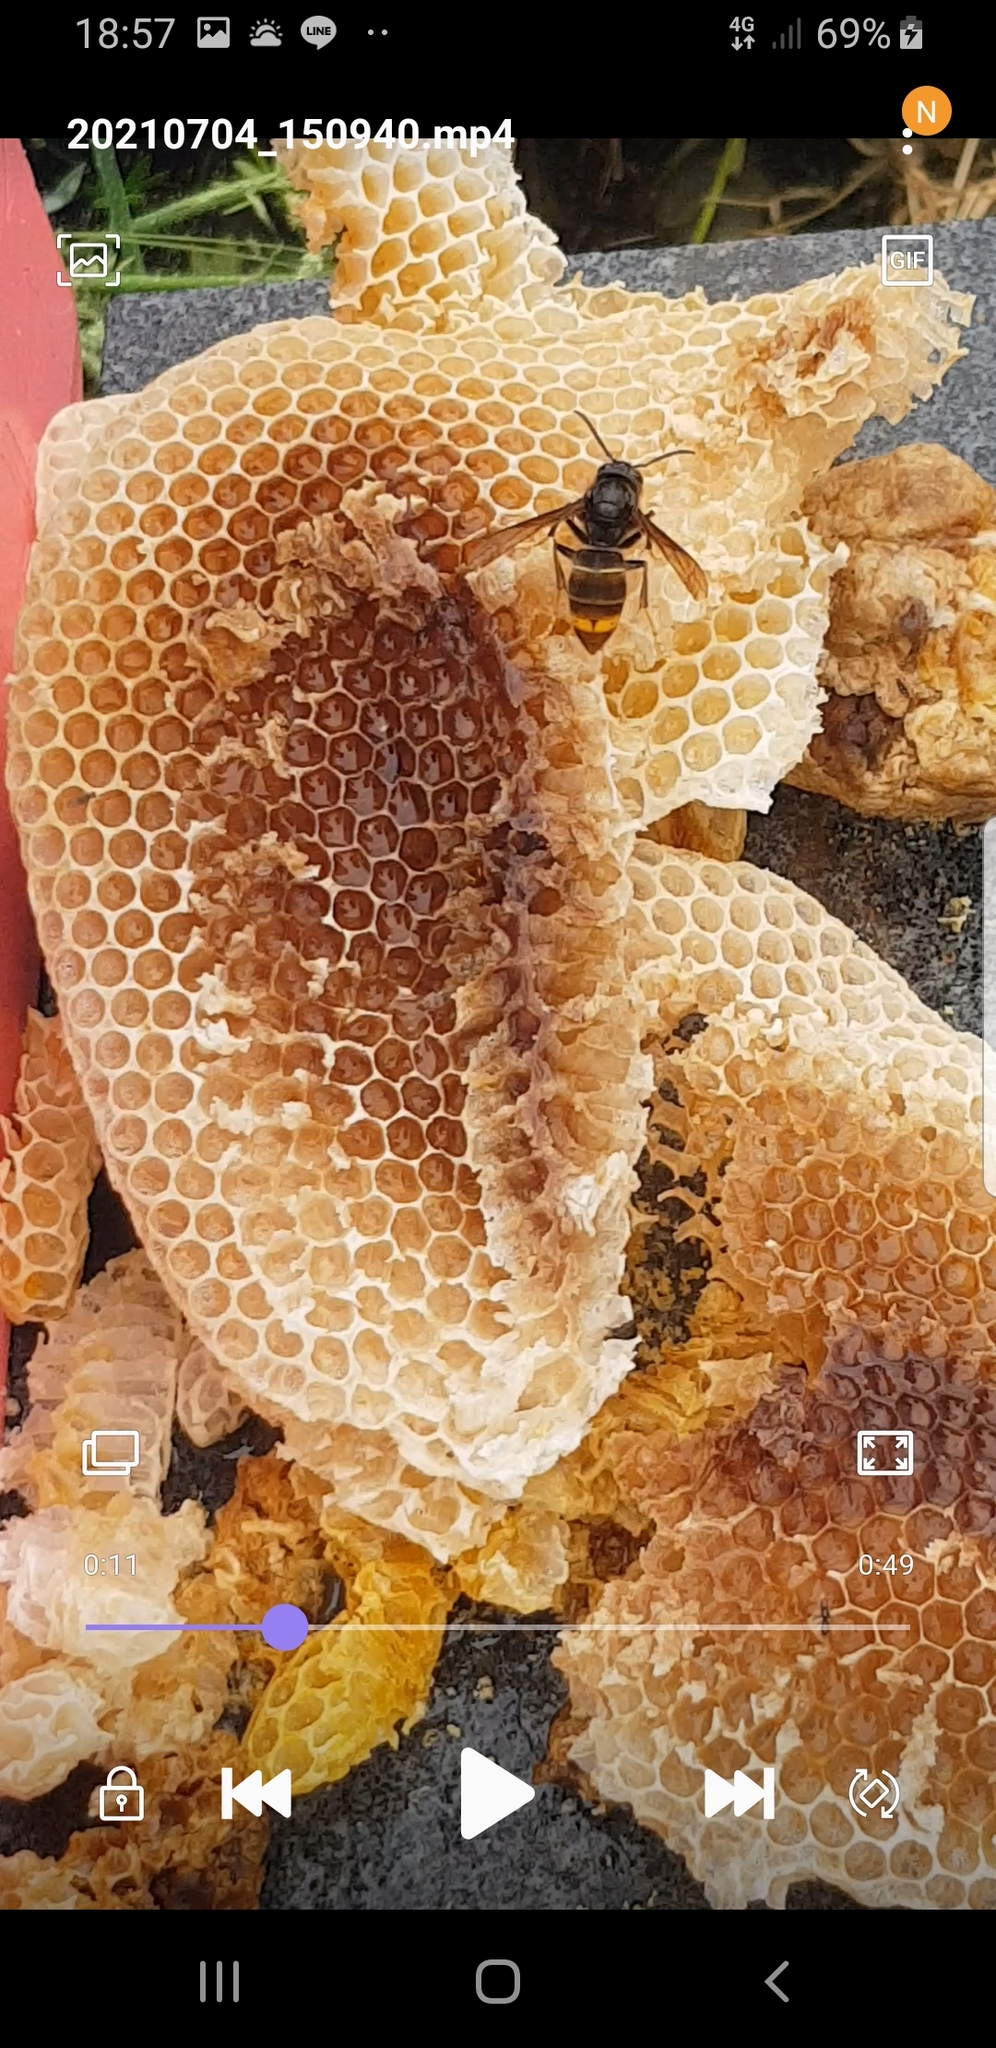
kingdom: Animalia
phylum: Arthropoda
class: Insecta
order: Hymenoptera
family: Vespidae
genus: Vespa
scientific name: Vespa velutina
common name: Asian hornet
